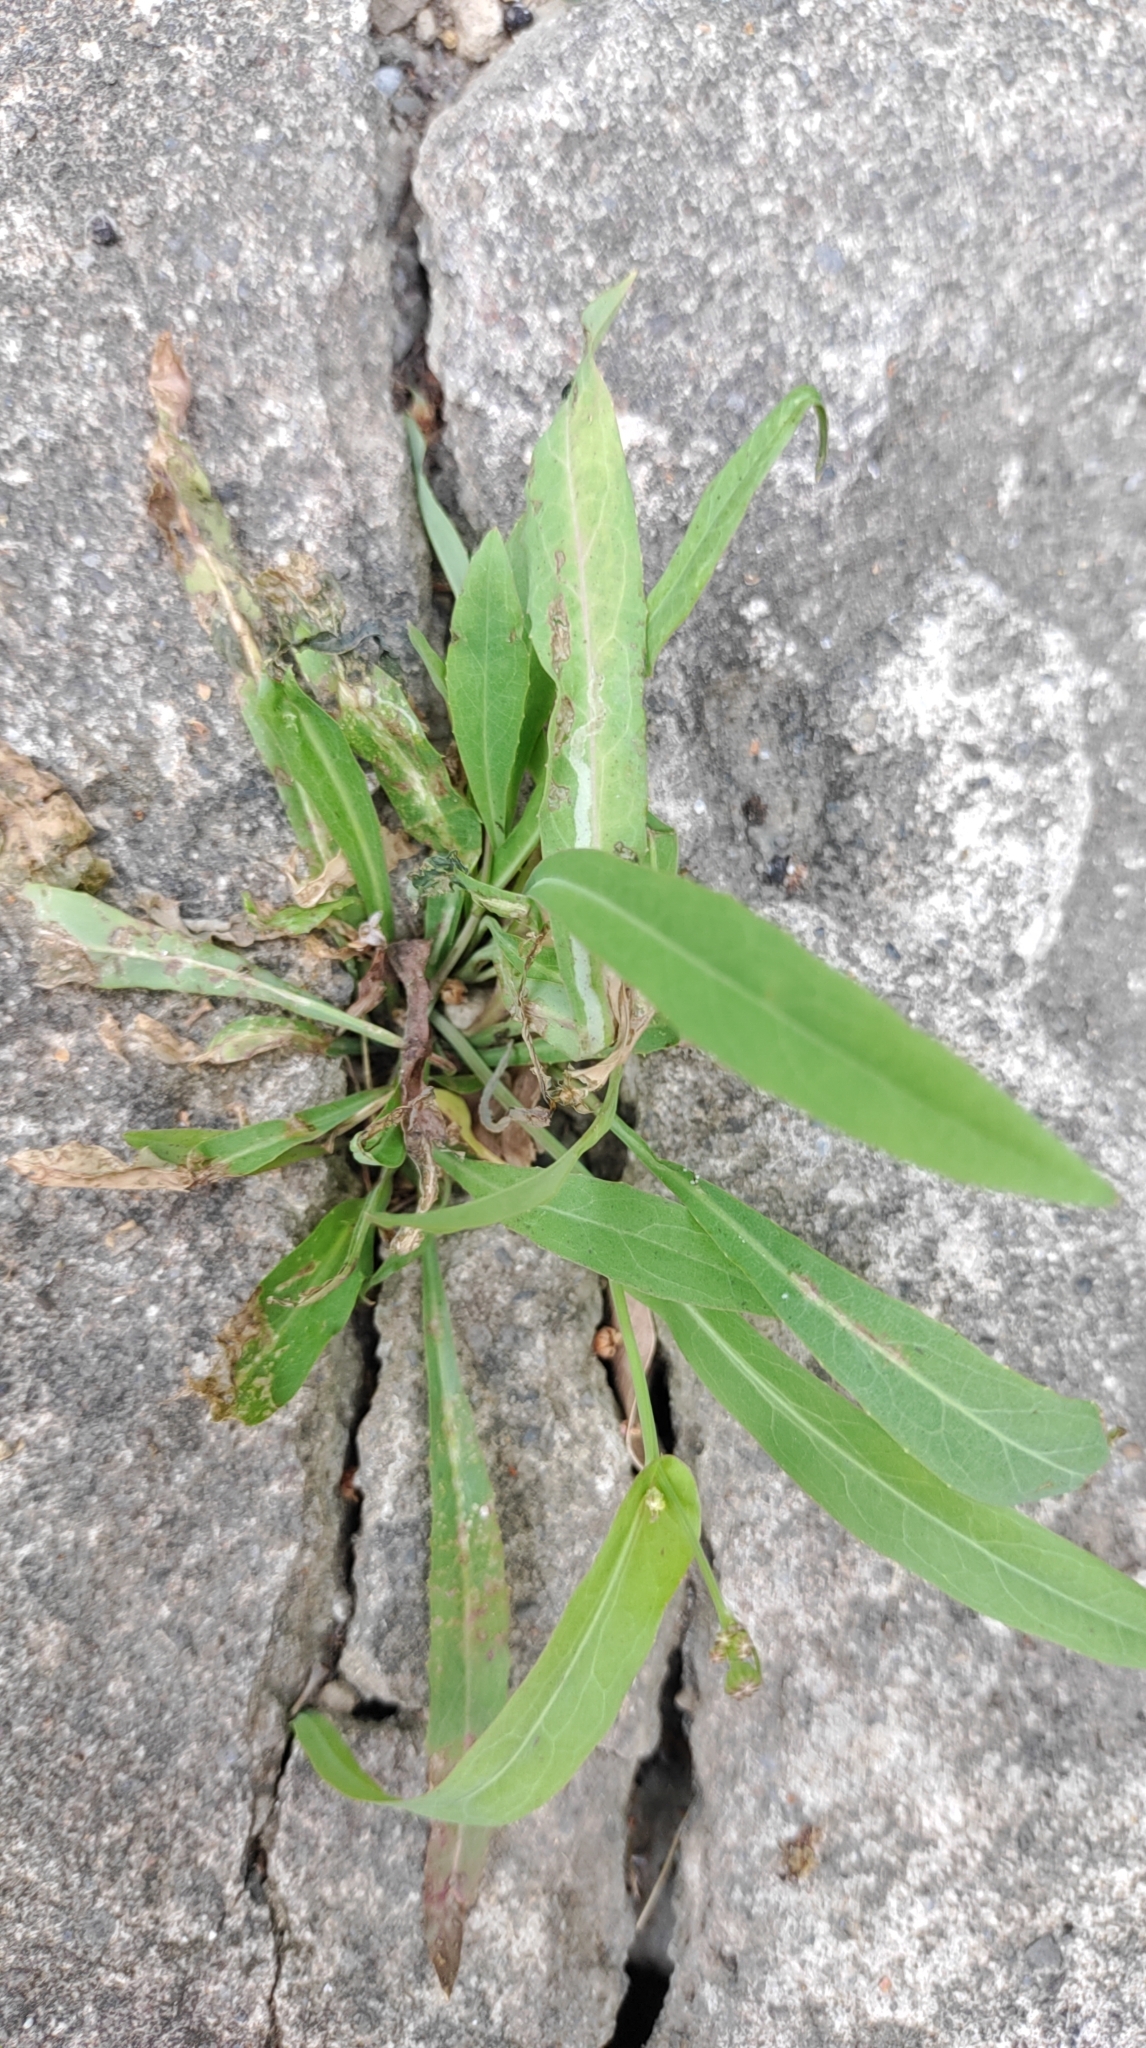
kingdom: Plantae
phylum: Tracheophyta
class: Magnoliopsida
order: Asterales
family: Asteraceae
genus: Ixeris
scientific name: Ixeris chinensis
